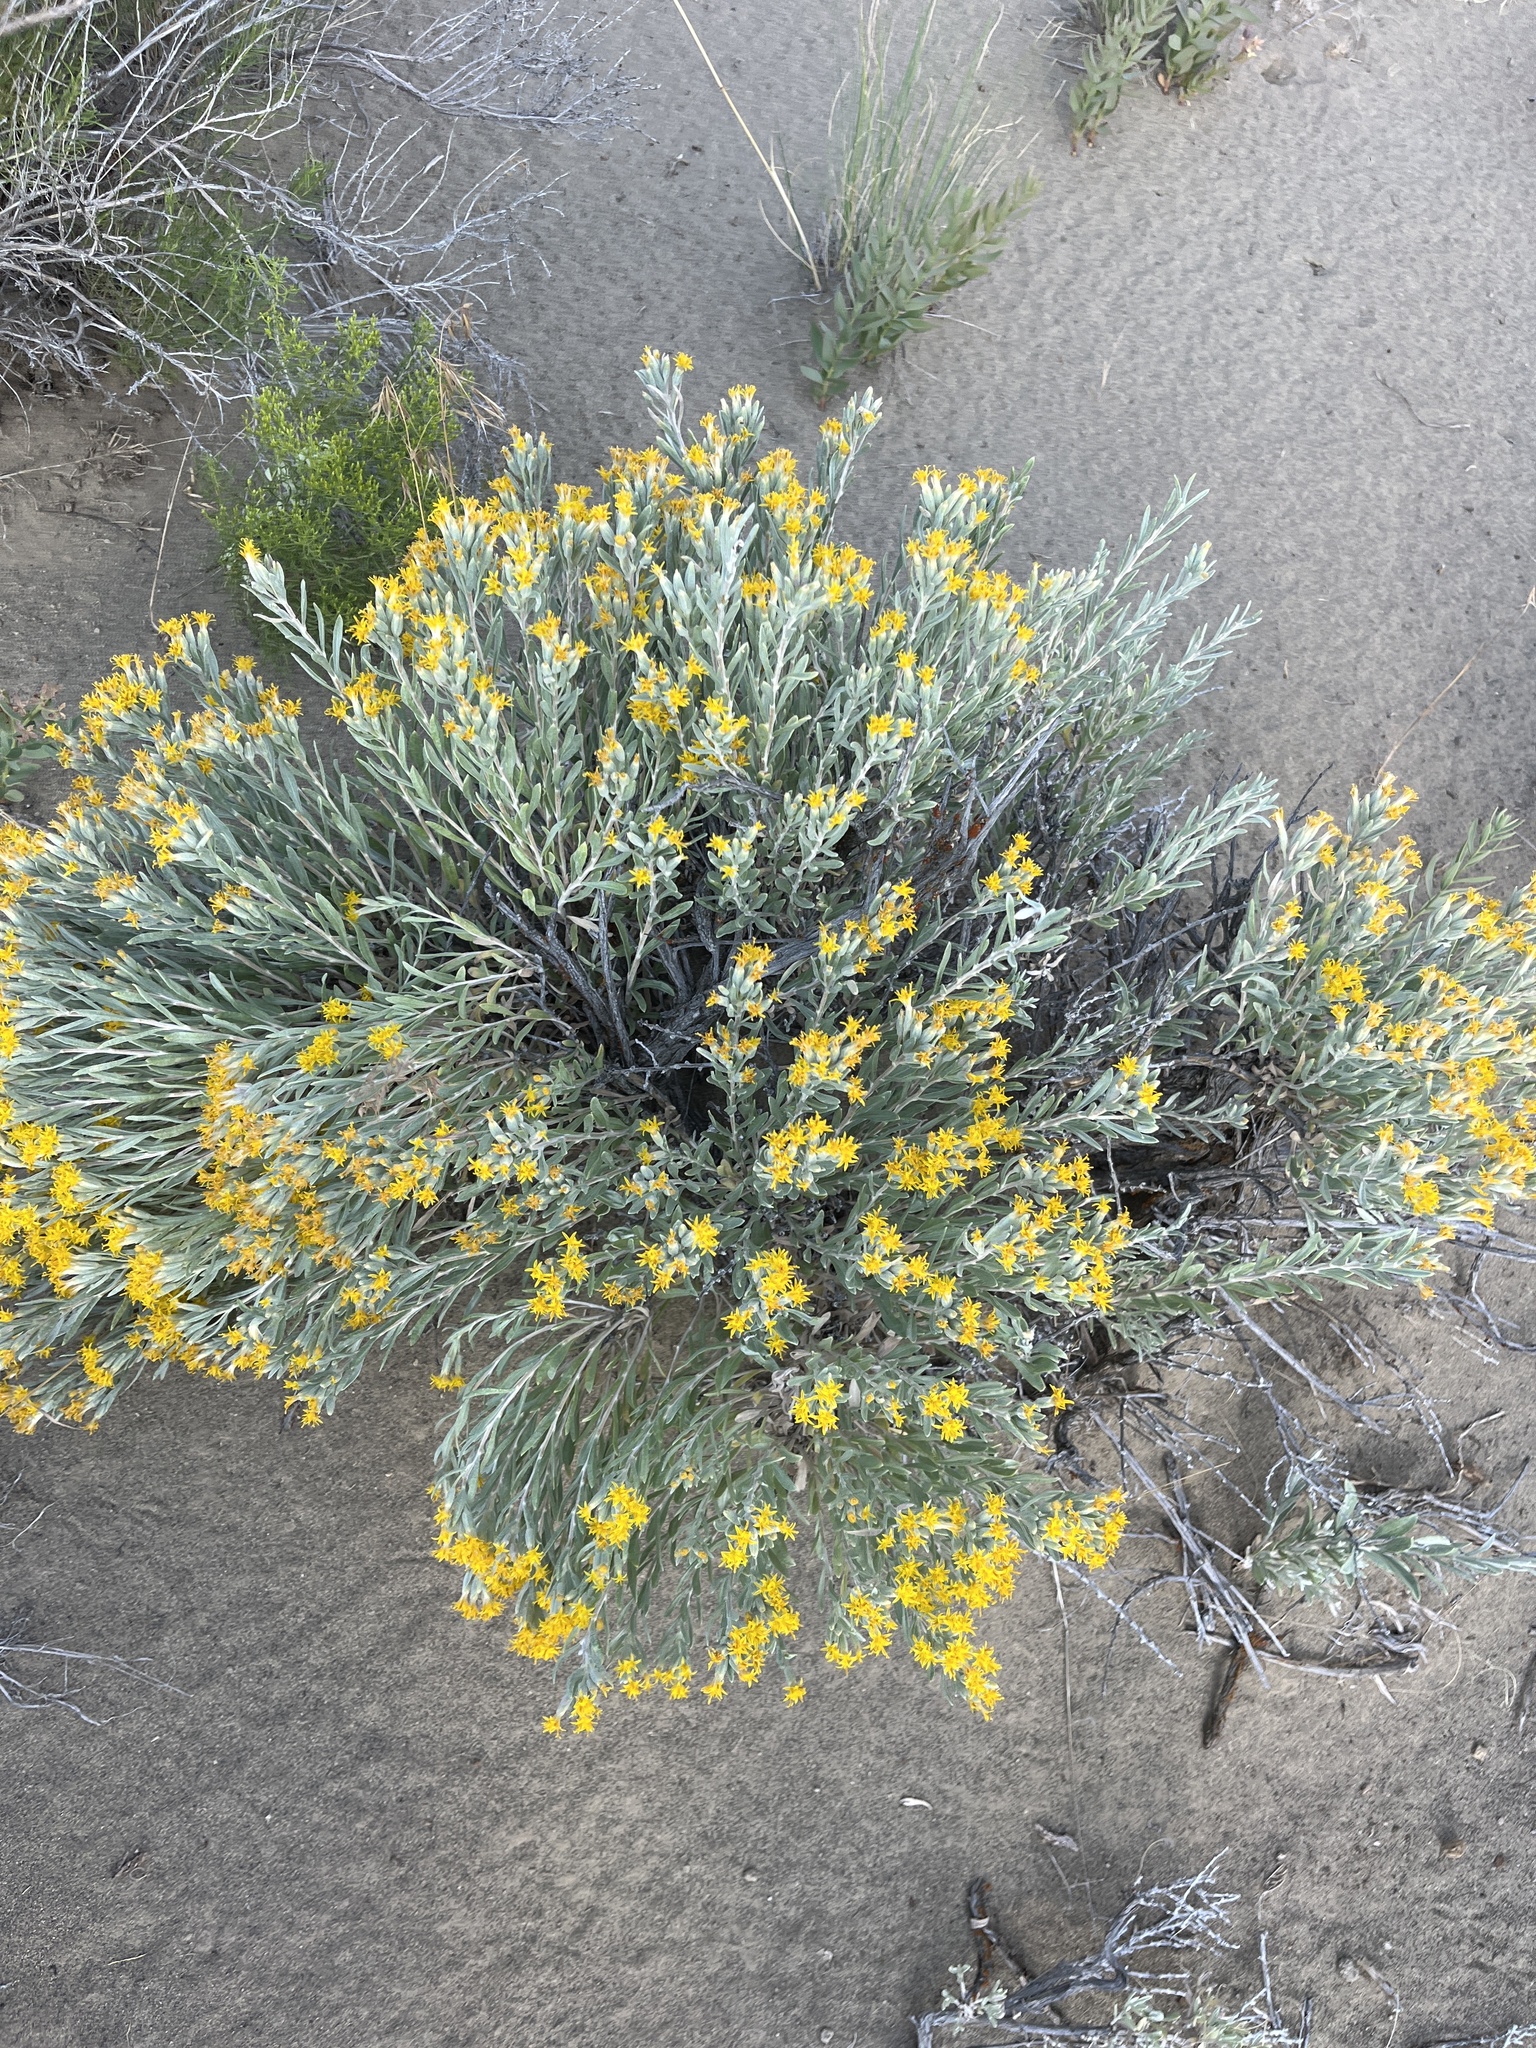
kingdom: Plantae
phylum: Tracheophyta
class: Magnoliopsida
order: Asterales
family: Asteraceae
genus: Tetradymia
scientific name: Tetradymia canescens
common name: Spineless horsebrush
